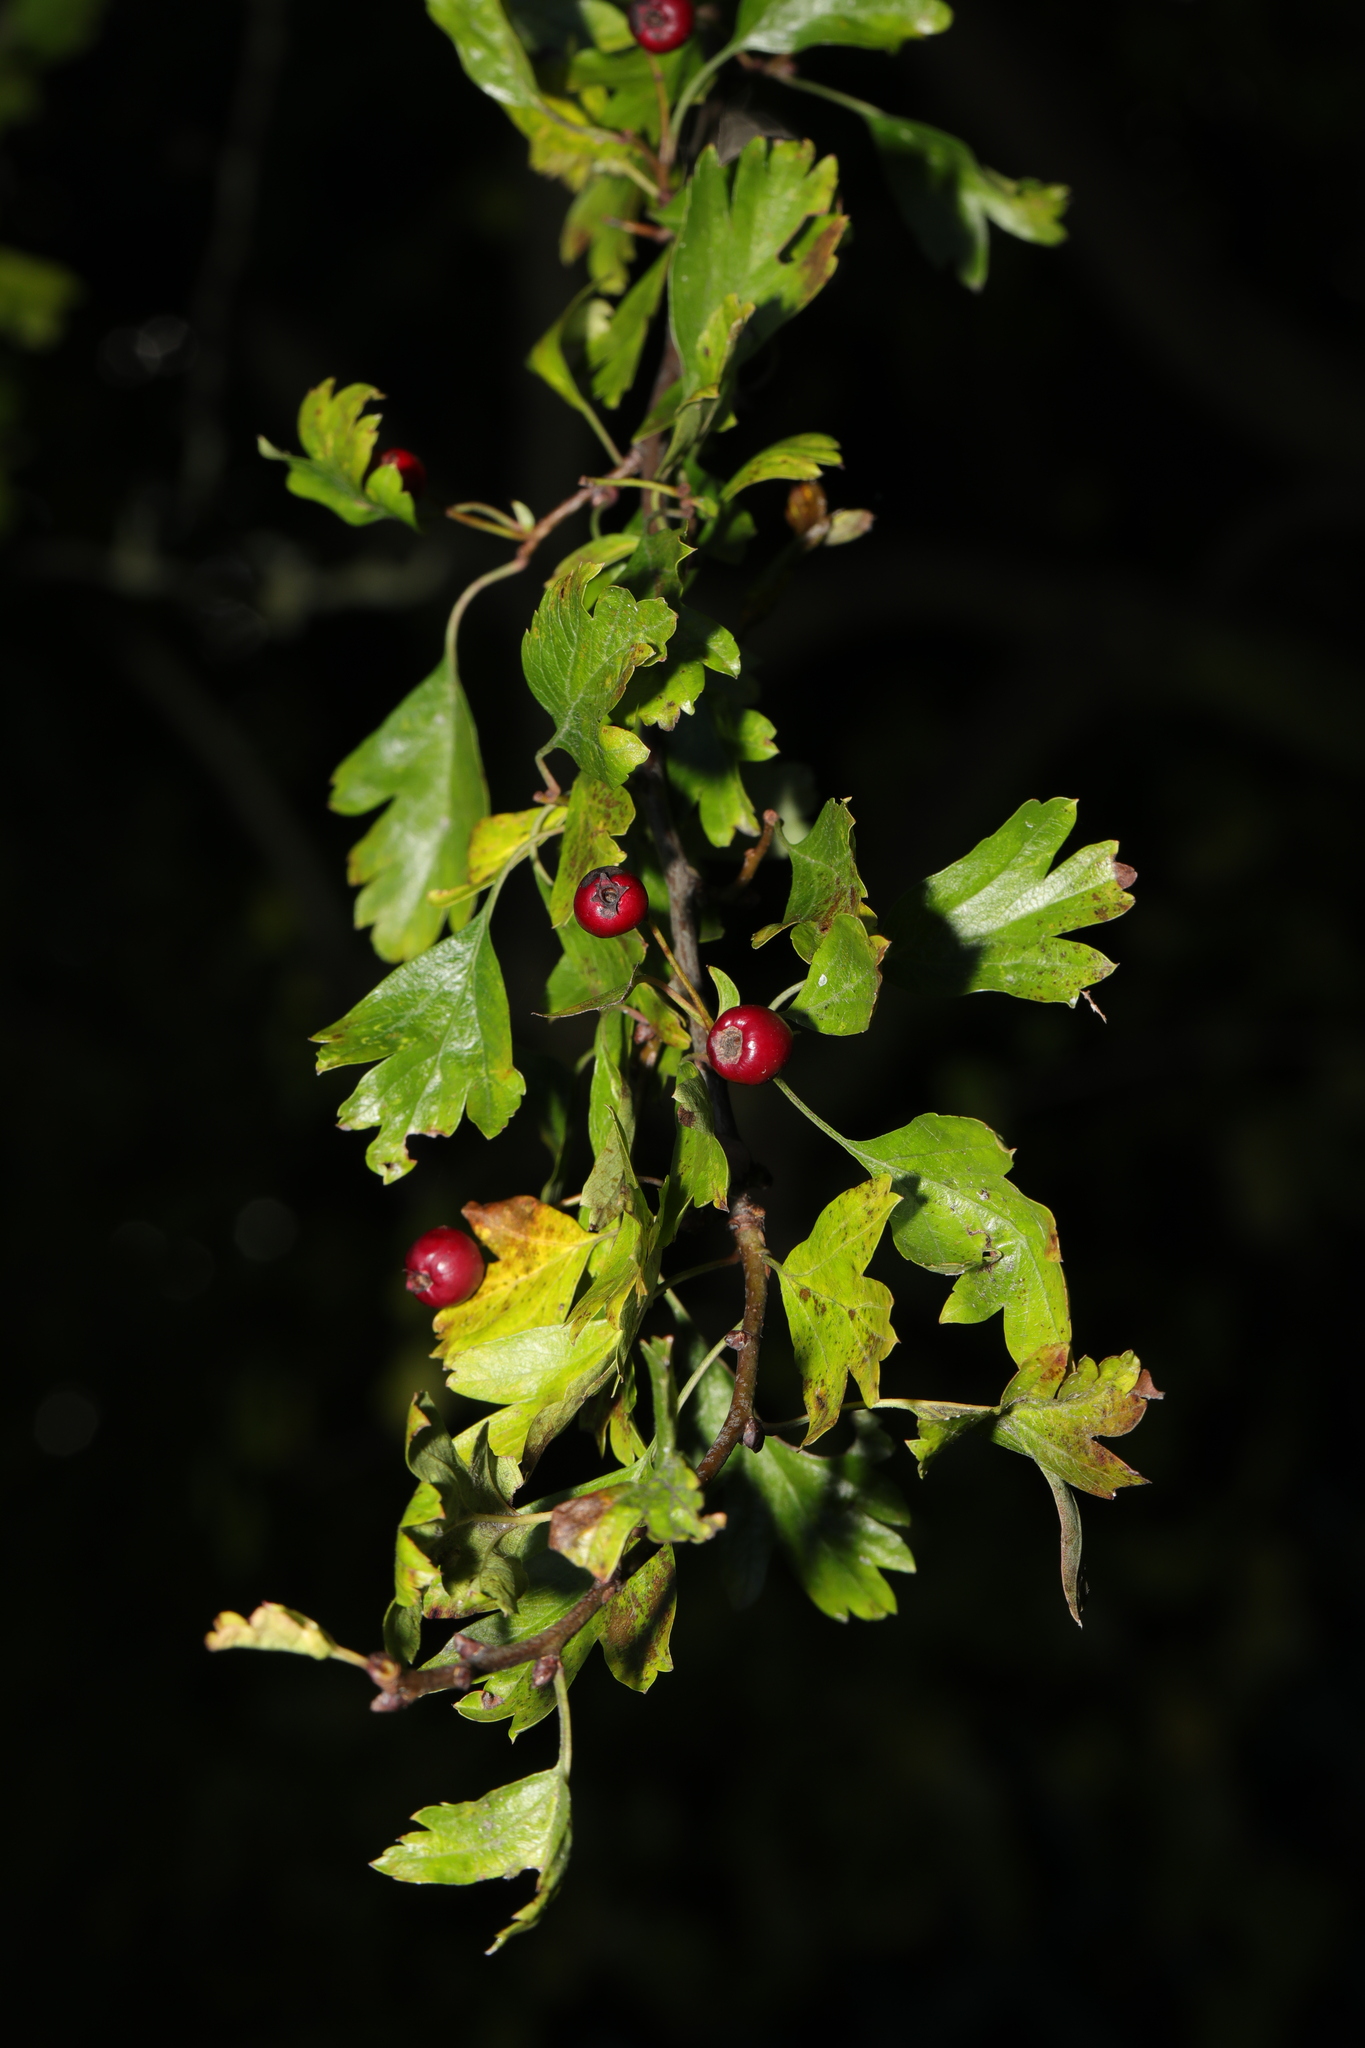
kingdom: Plantae
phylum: Tracheophyta
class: Magnoliopsida
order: Rosales
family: Rosaceae
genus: Crataegus
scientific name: Crataegus monogyna
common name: Hawthorn
